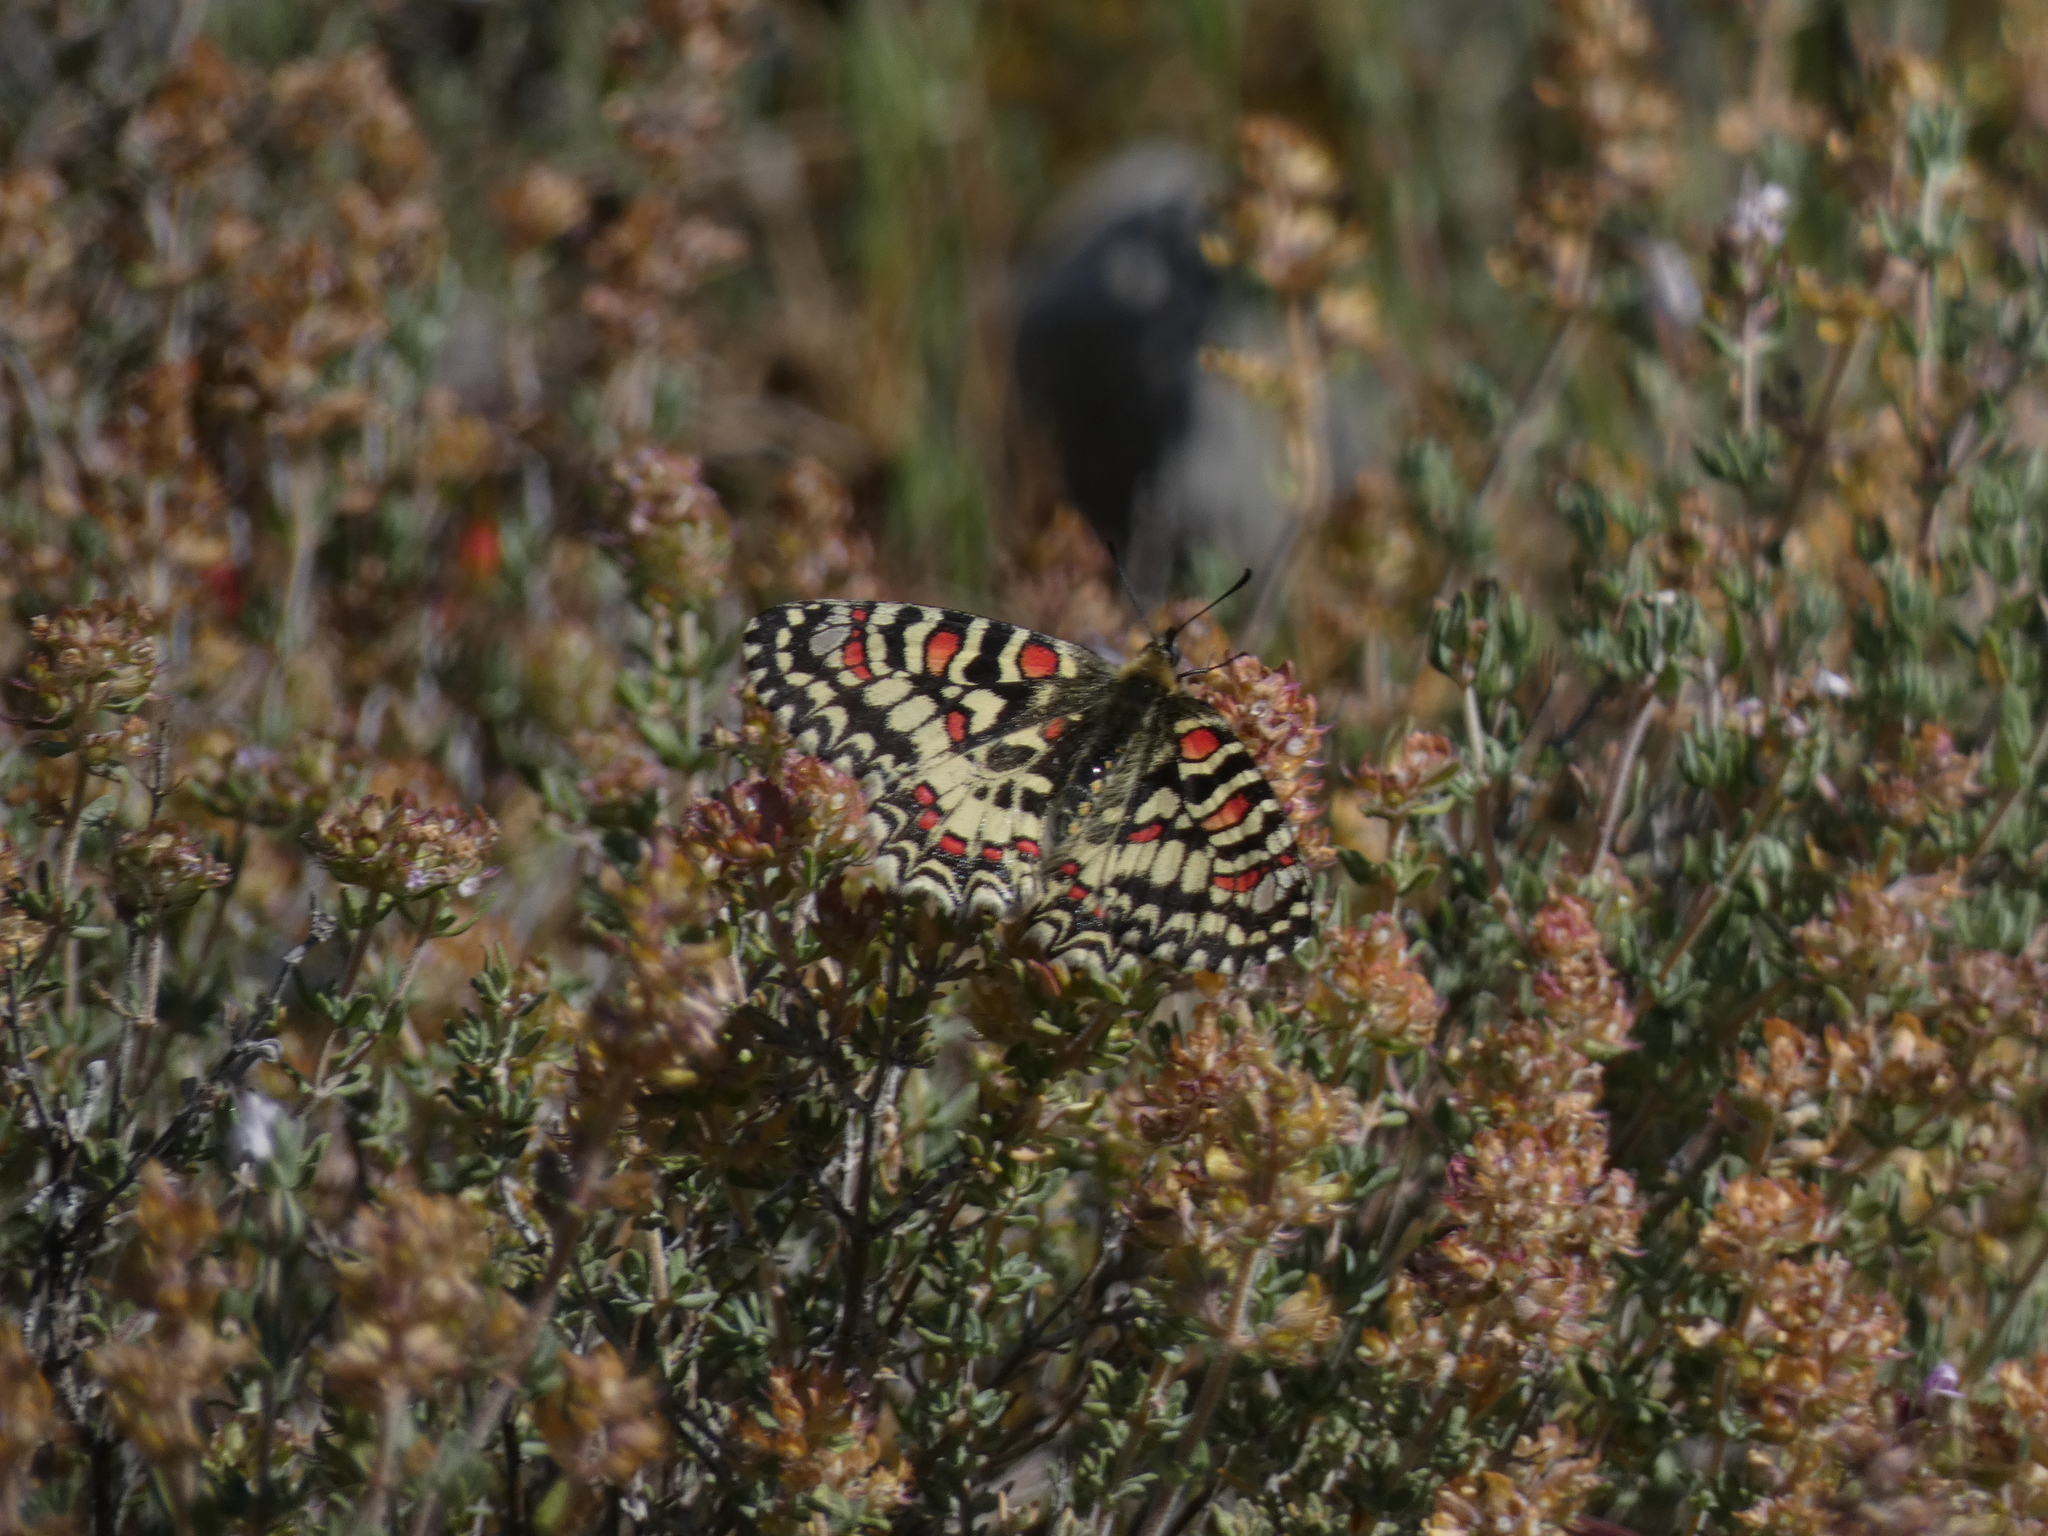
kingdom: Animalia
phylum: Arthropoda
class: Insecta
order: Lepidoptera
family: Papilionidae
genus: Zerynthia
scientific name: Zerynthia rumina
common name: Spanish festoon
